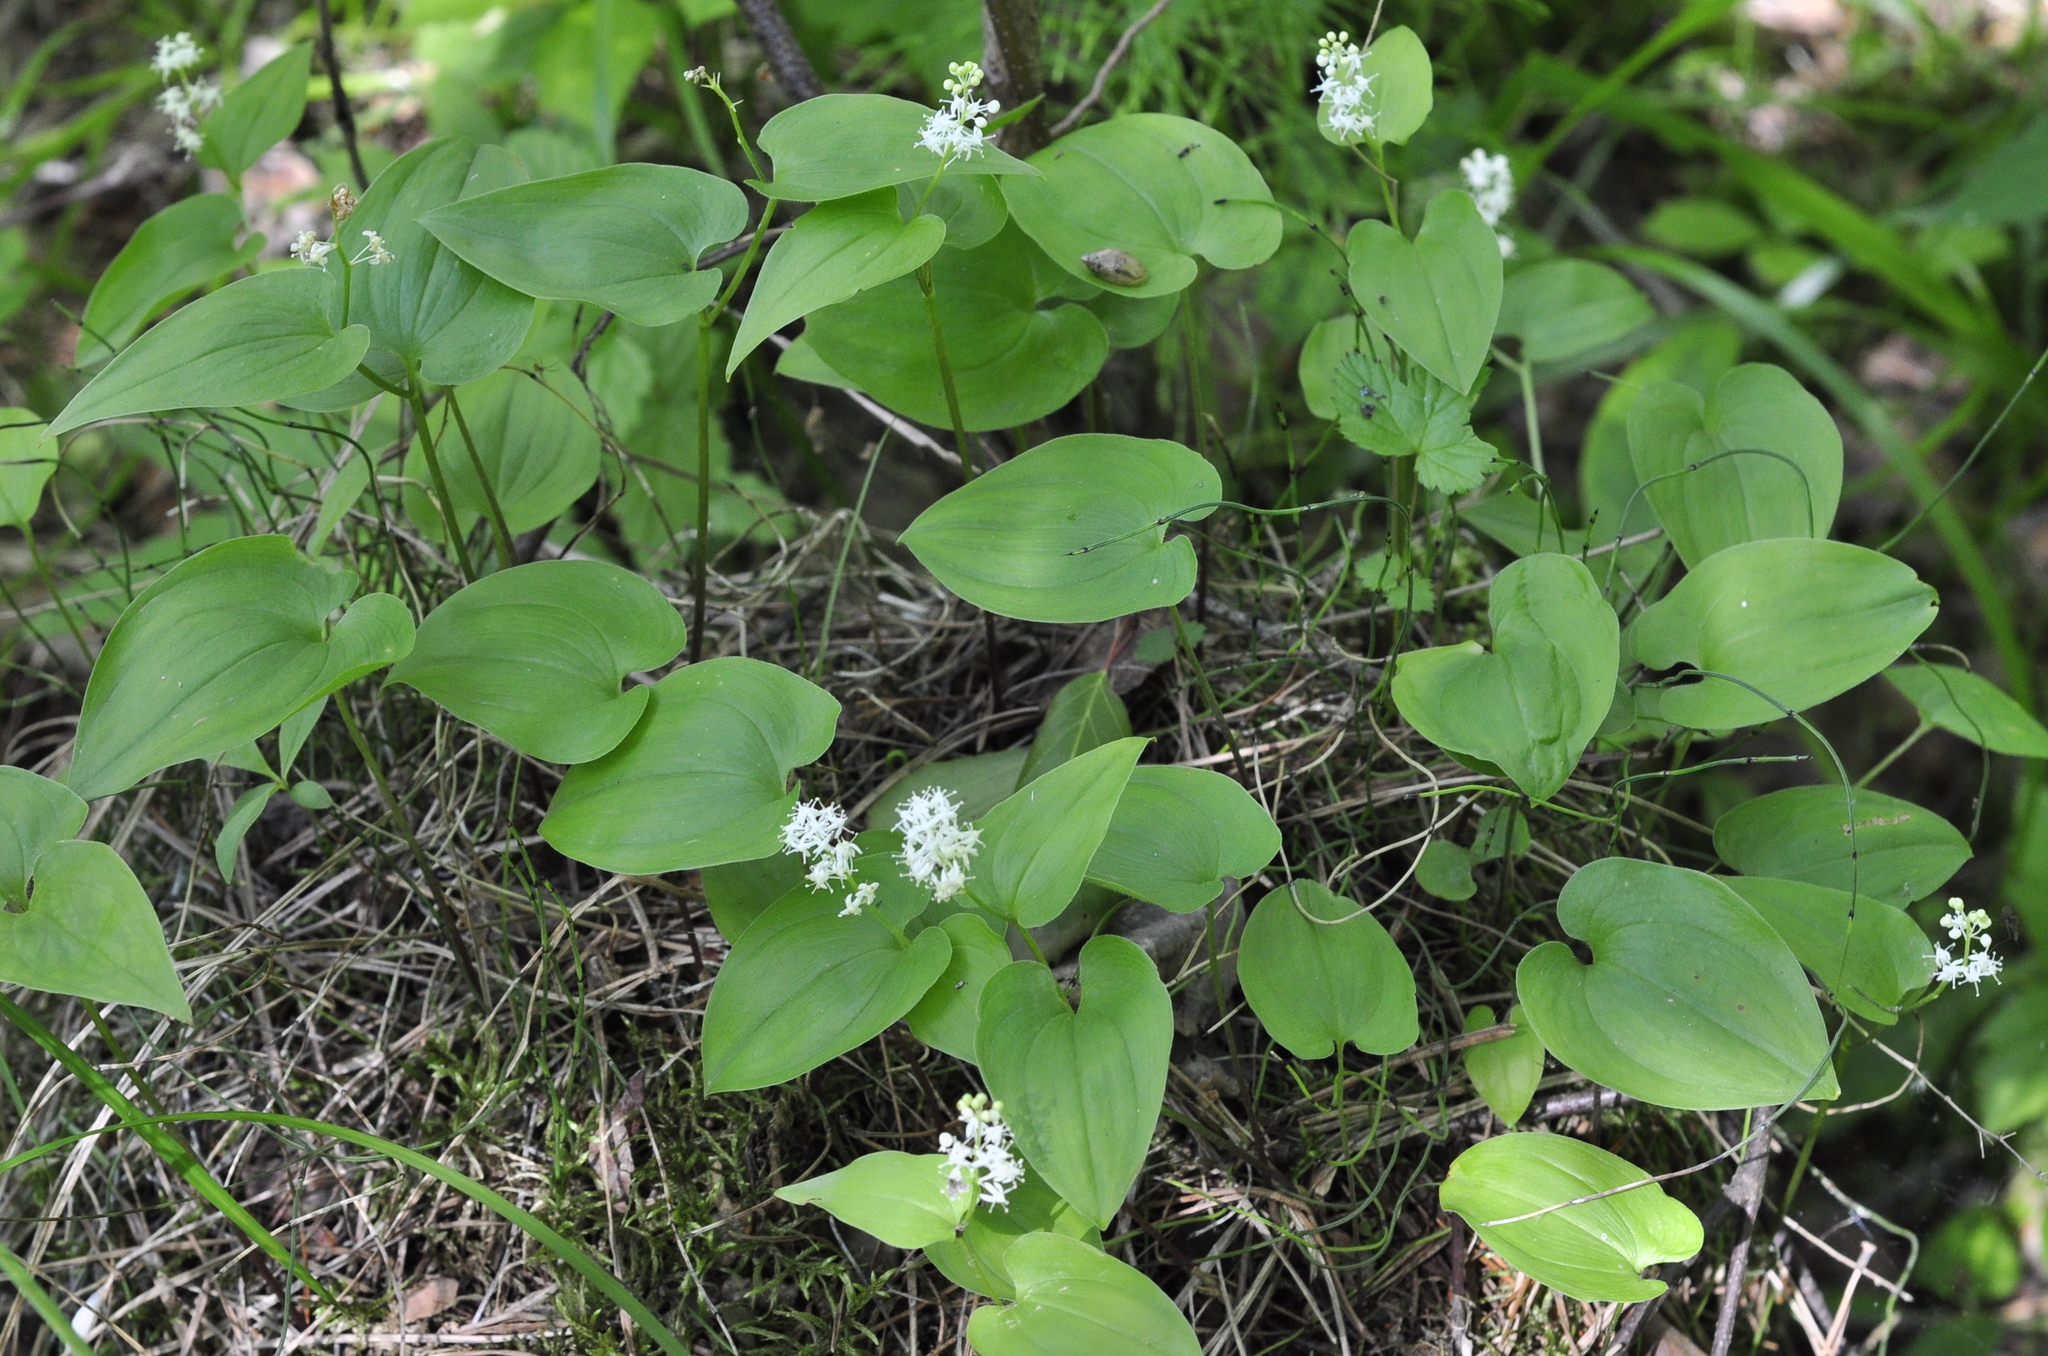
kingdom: Plantae
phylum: Tracheophyta
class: Liliopsida
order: Asparagales
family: Asparagaceae
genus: Maianthemum
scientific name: Maianthemum bifolium
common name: May lily
